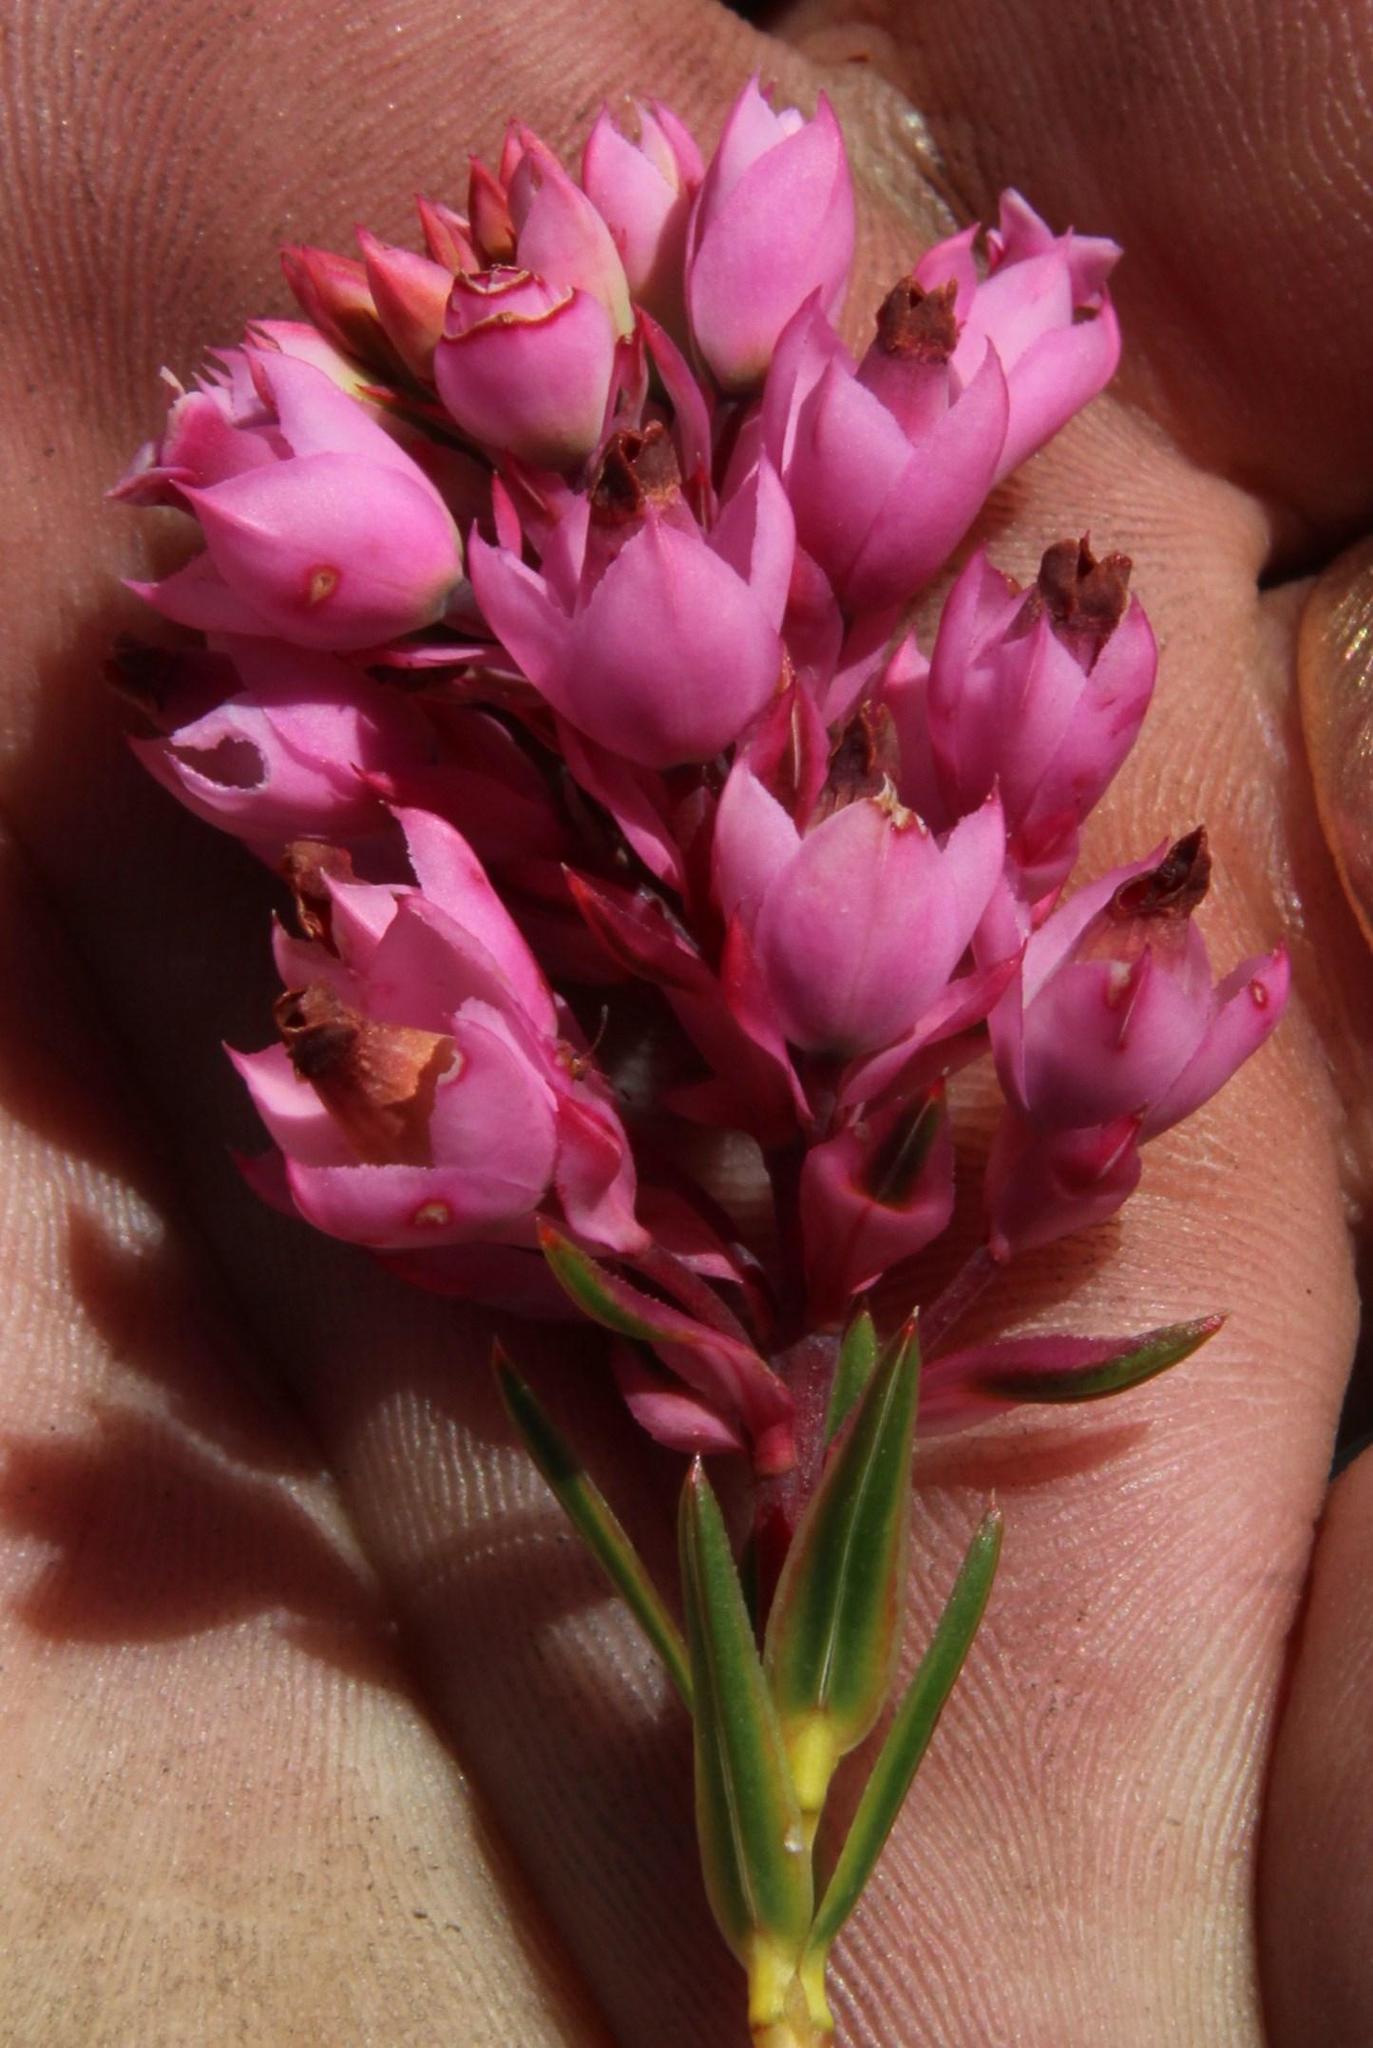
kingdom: Plantae
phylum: Tracheophyta
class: Magnoliopsida
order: Ericales
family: Ericaceae
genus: Erica
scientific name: Erica taxifolia
